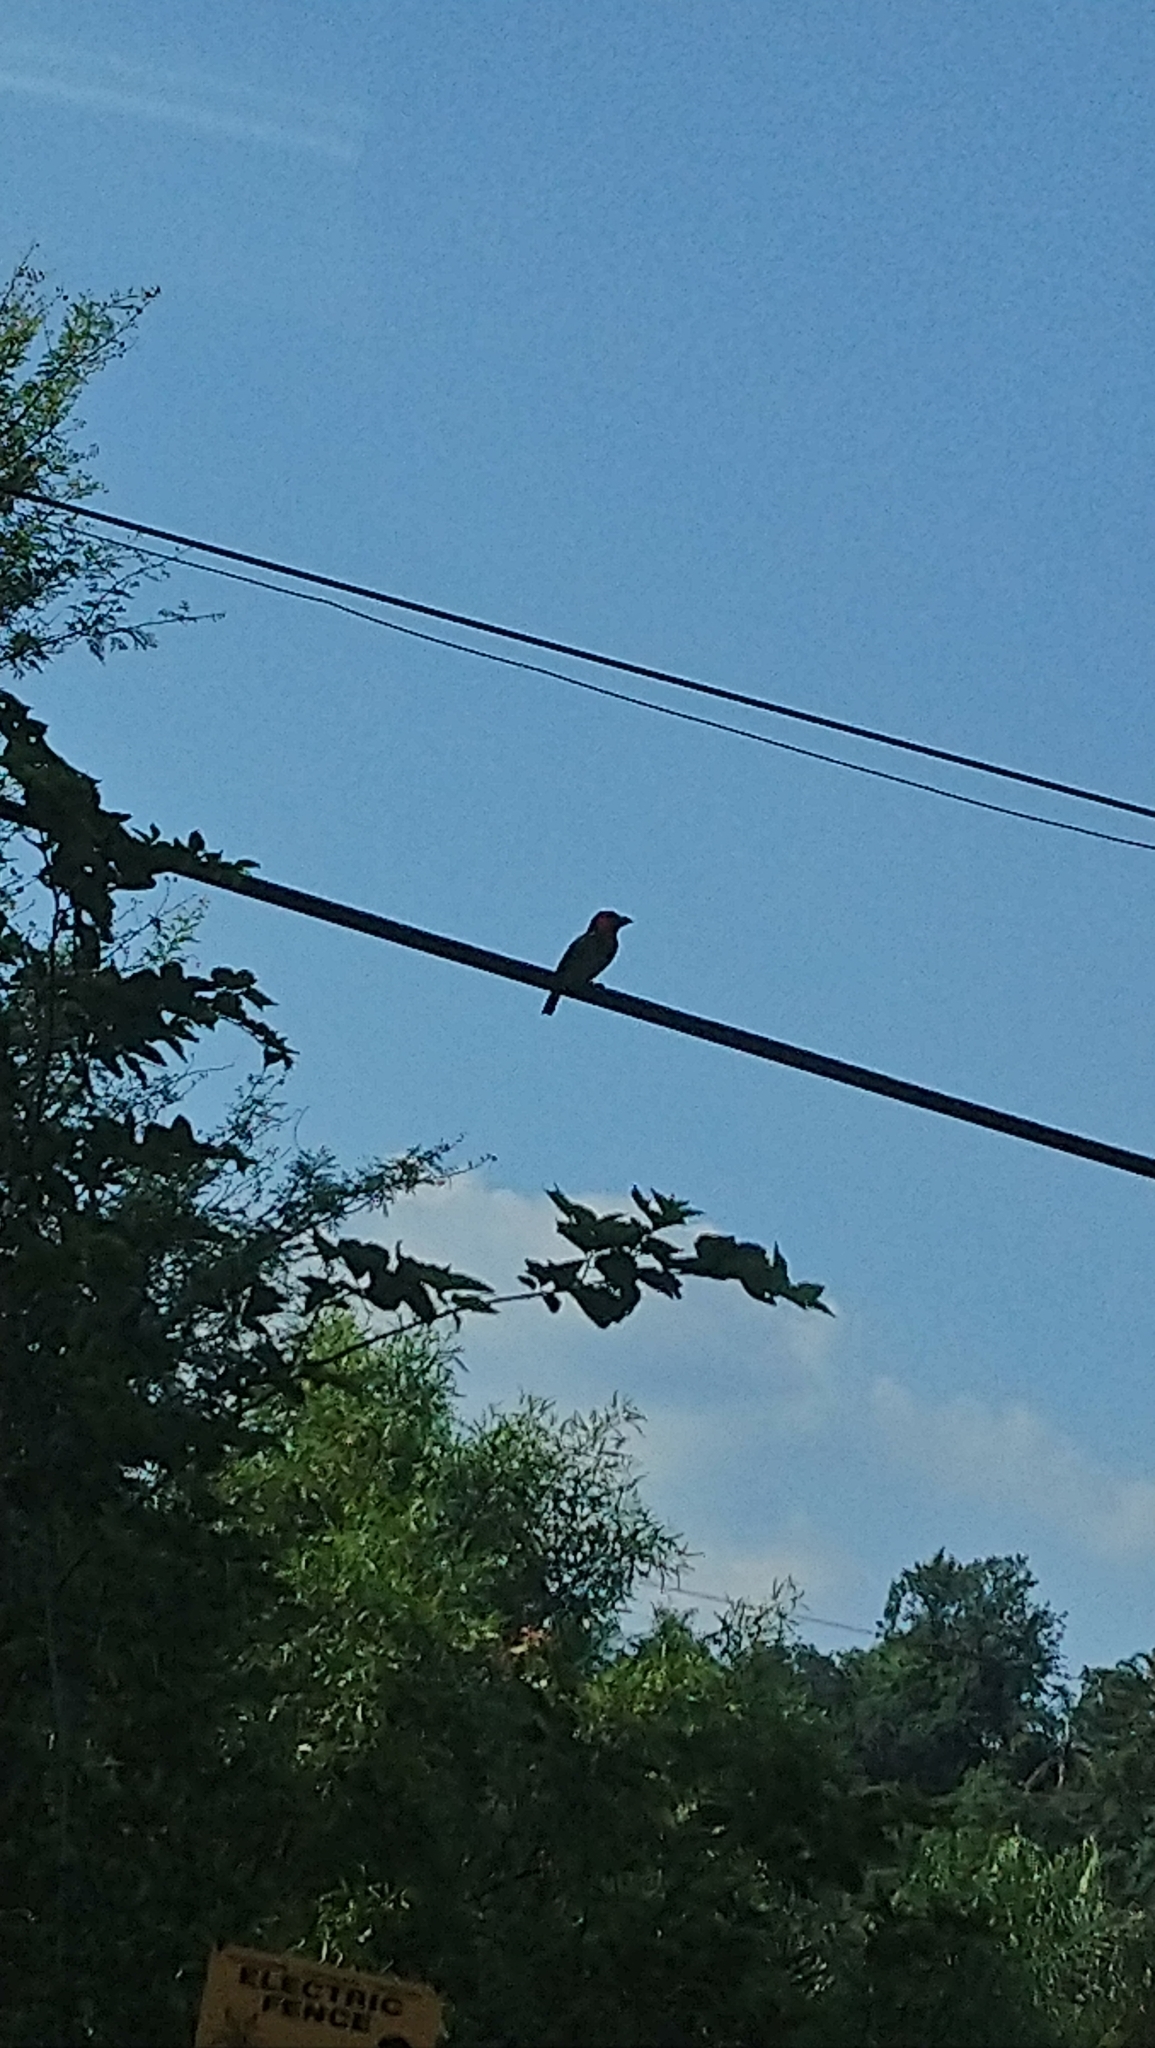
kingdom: Animalia
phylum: Chordata
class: Aves
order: Piciformes
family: Lybiidae
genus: Lybius
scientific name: Lybius torquatus
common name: Black-collared barbet
